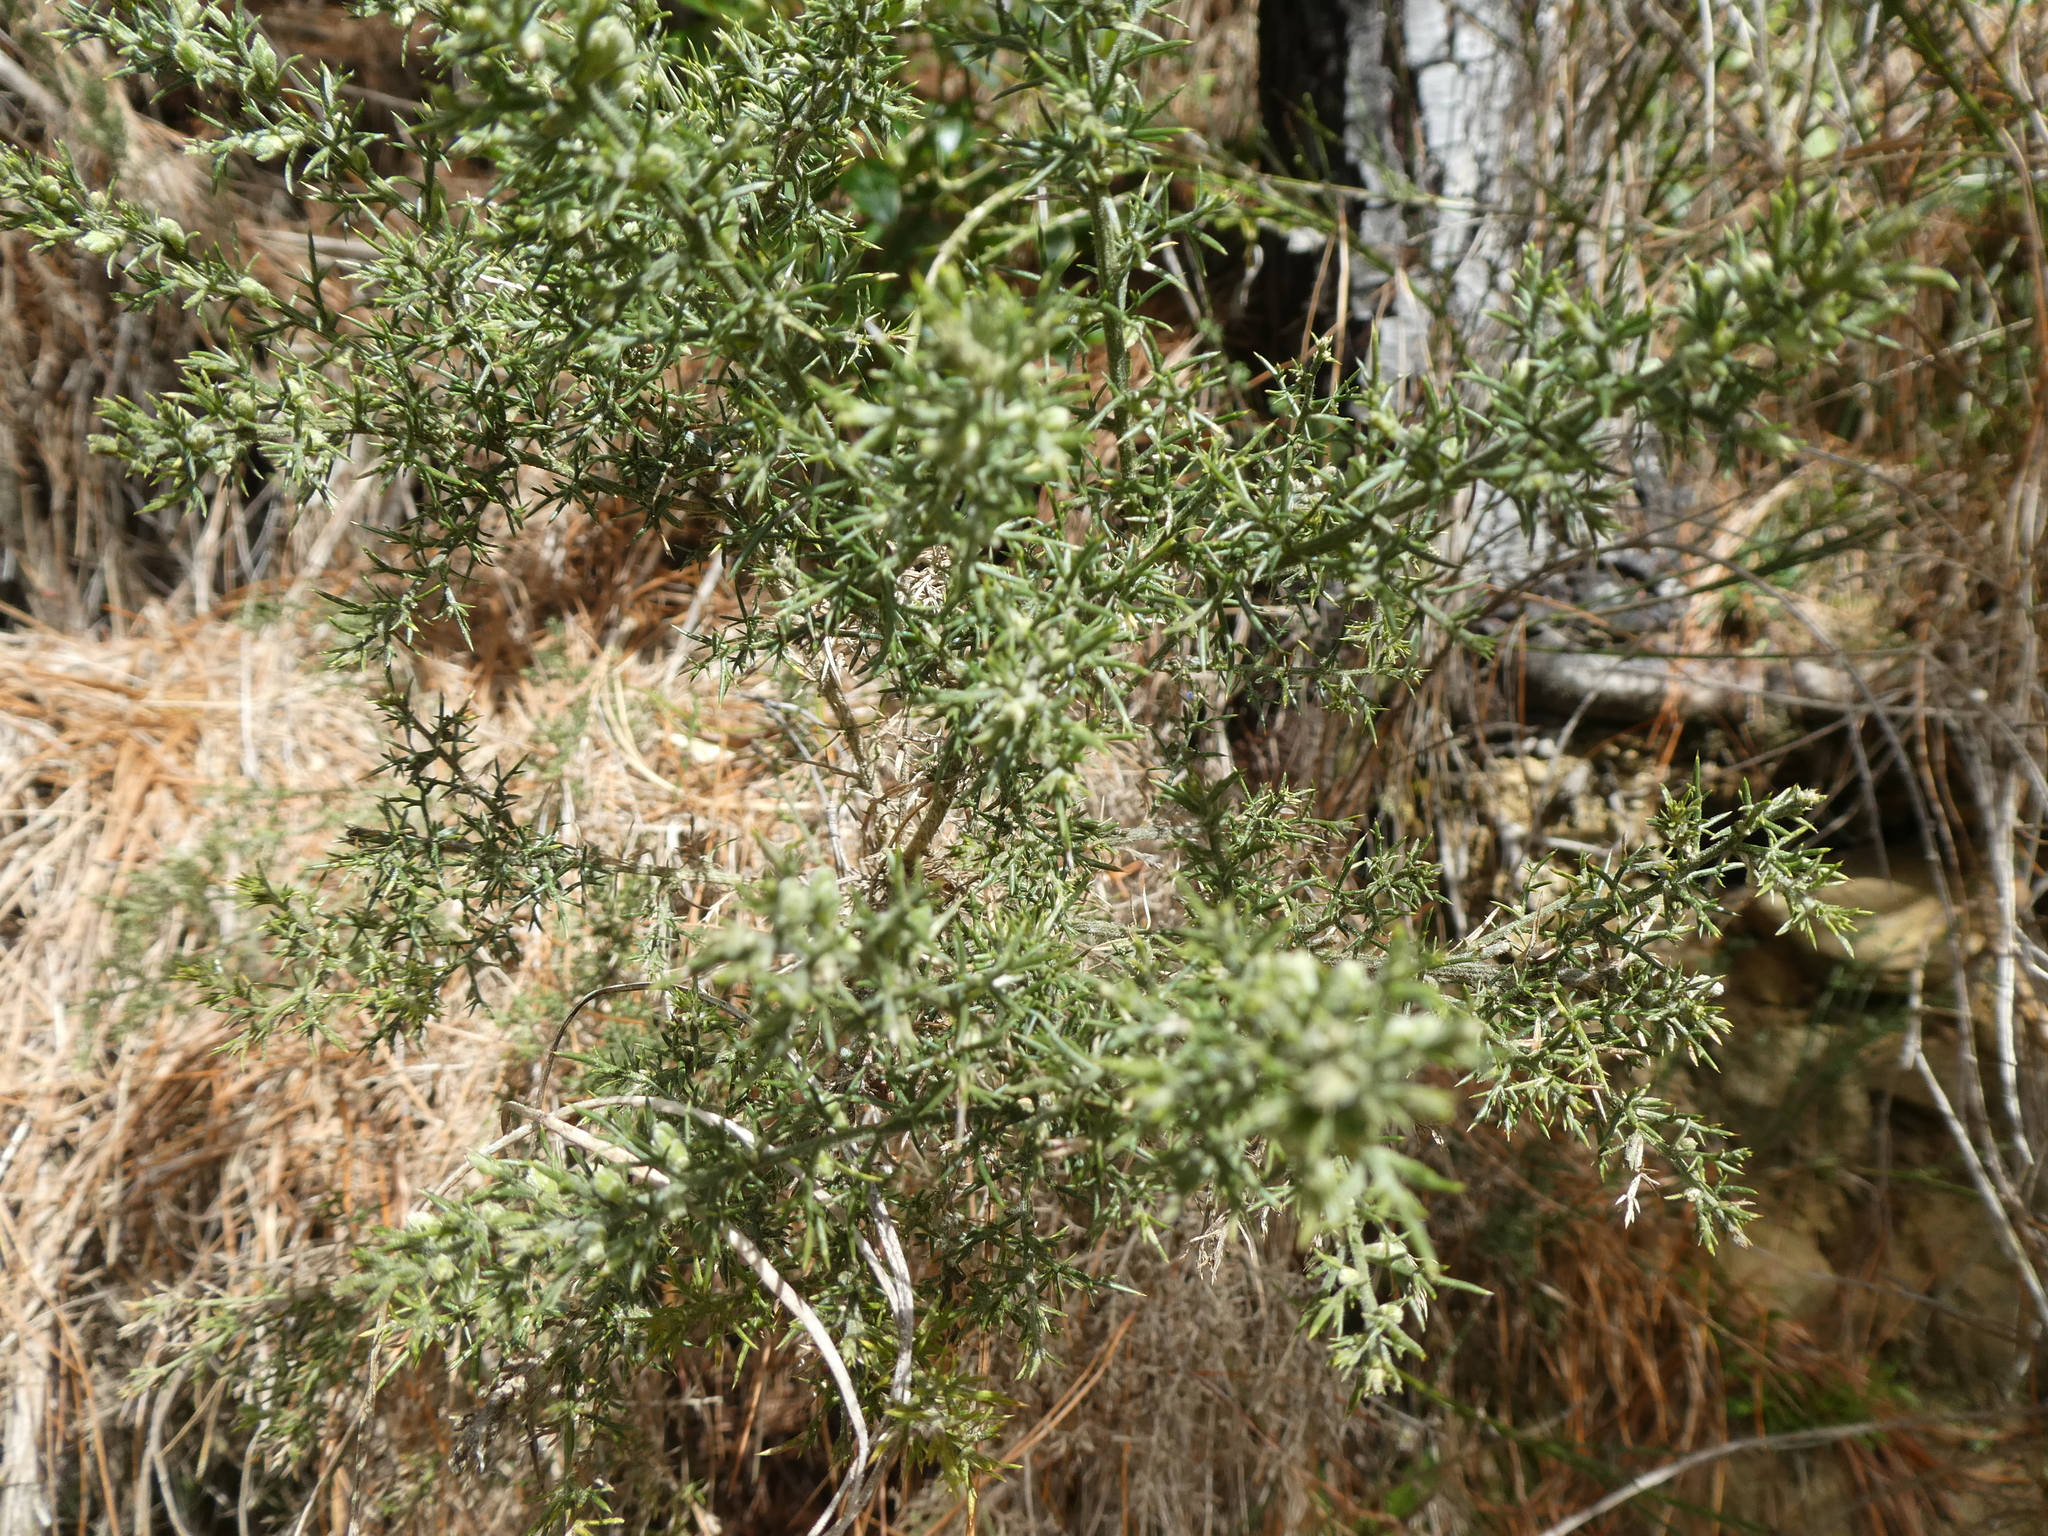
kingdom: Plantae
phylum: Tracheophyta
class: Magnoliopsida
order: Fabales
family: Fabaceae
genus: Ulex
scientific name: Ulex europaeus
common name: Common gorse
